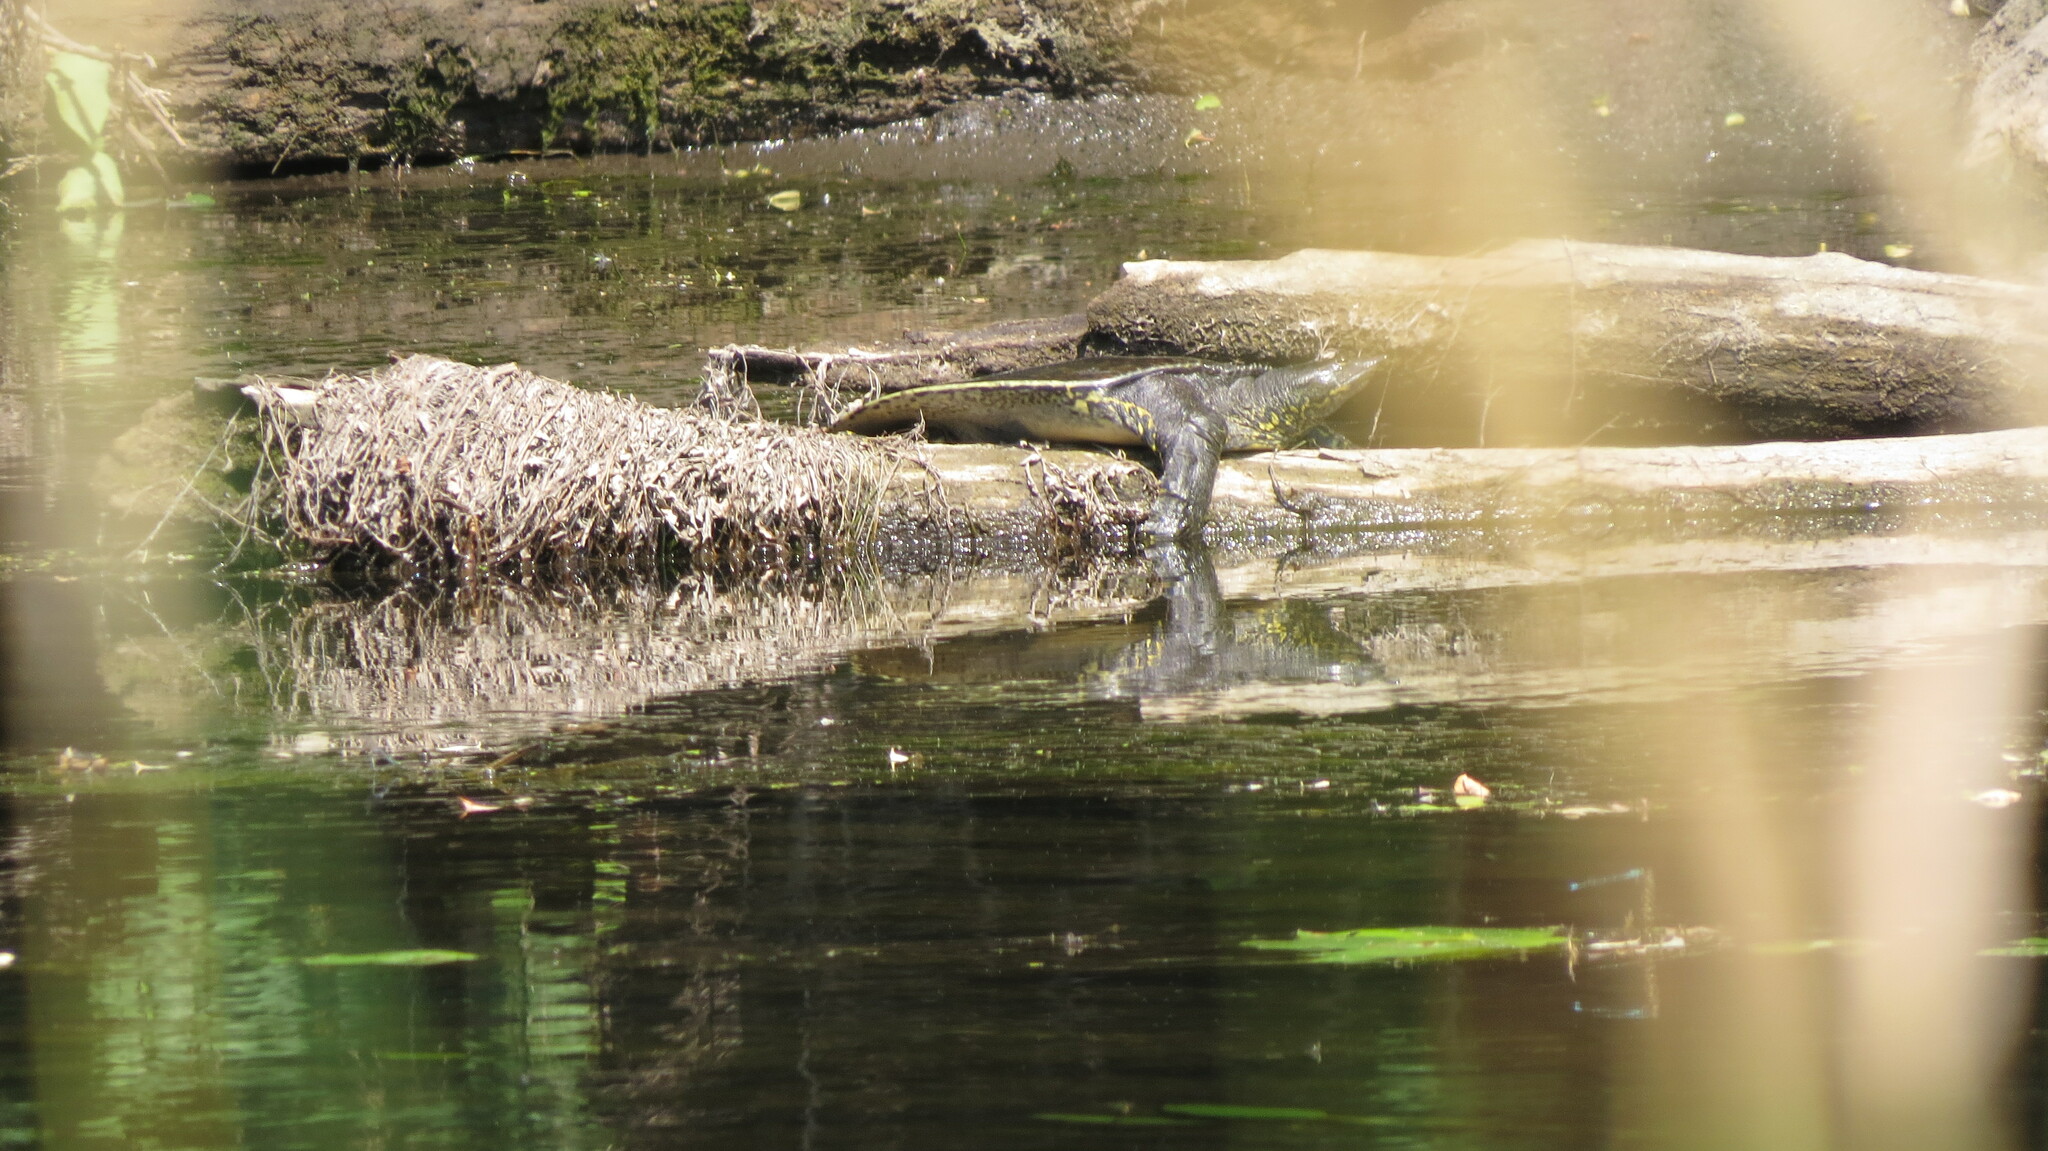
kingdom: Animalia
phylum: Chordata
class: Testudines
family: Trionychidae
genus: Apalone
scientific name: Apalone spinifera
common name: Spiny softshell turtle
